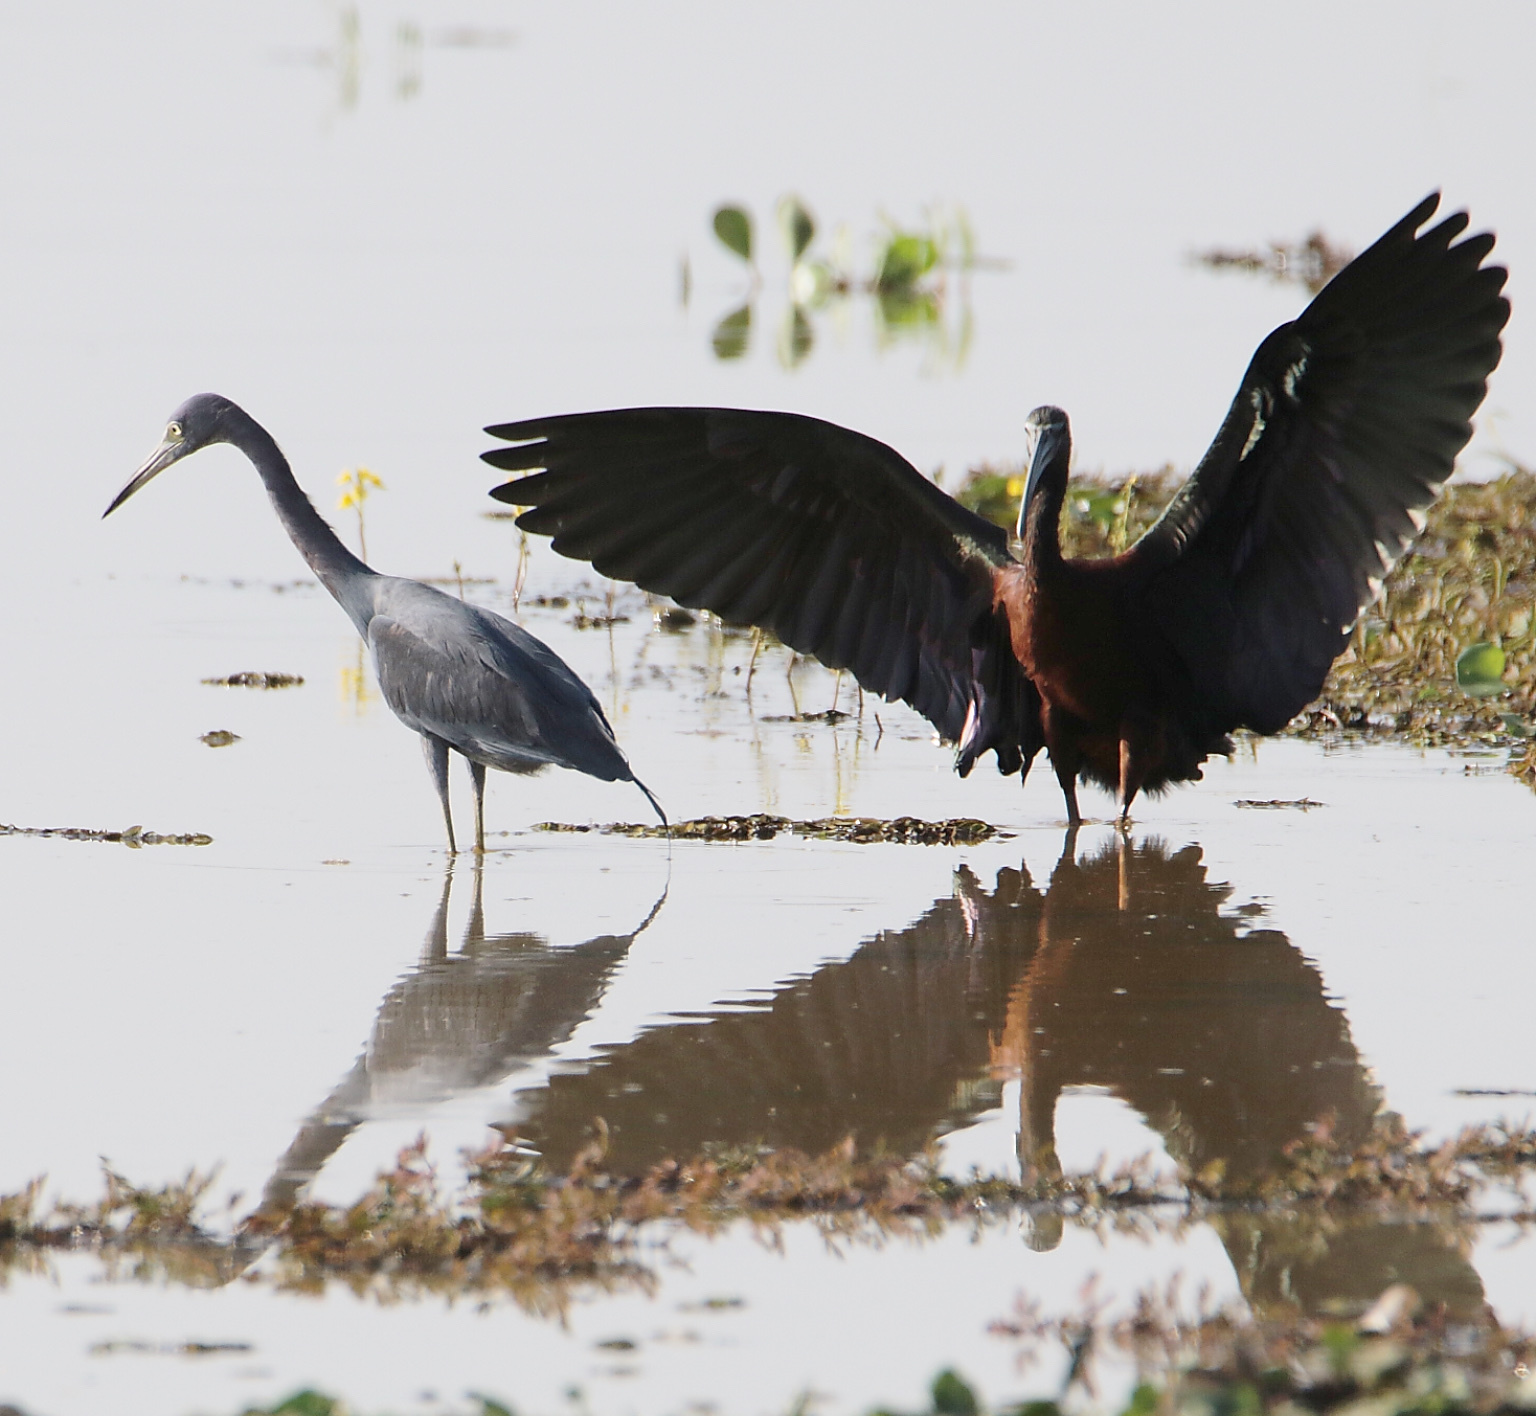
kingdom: Animalia
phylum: Chordata
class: Aves
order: Pelecaniformes
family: Threskiornithidae
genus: Plegadis
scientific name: Plegadis falcinellus
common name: Glossy ibis
